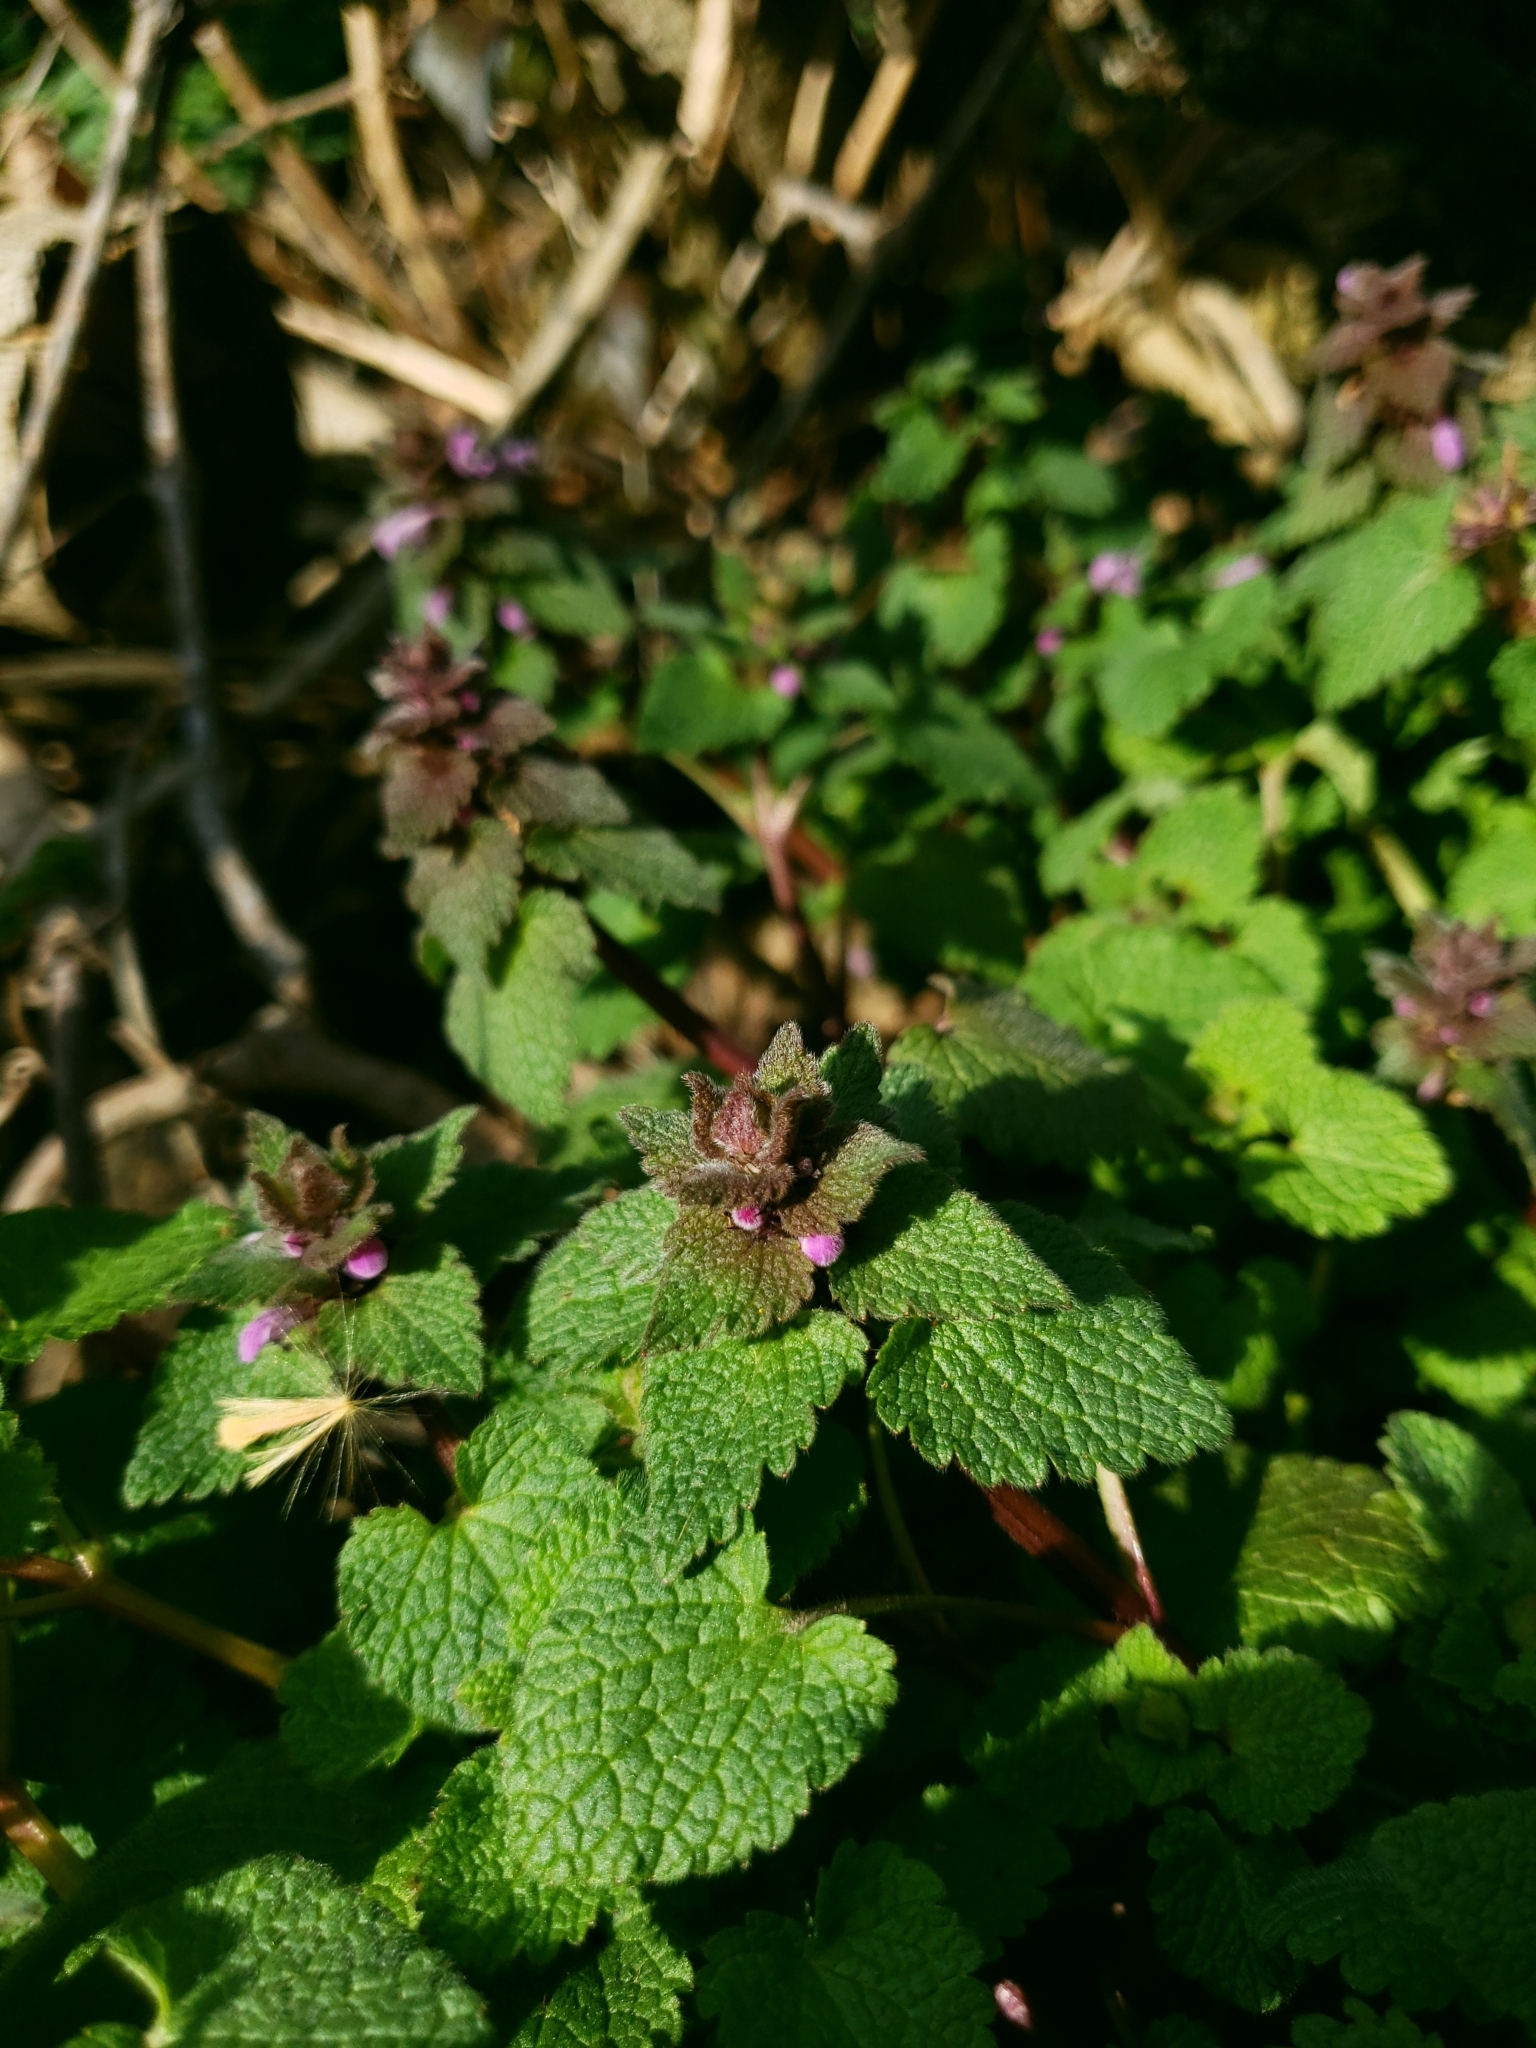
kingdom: Plantae
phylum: Tracheophyta
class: Magnoliopsida
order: Lamiales
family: Lamiaceae
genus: Lamium
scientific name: Lamium purpureum
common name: Red dead-nettle
